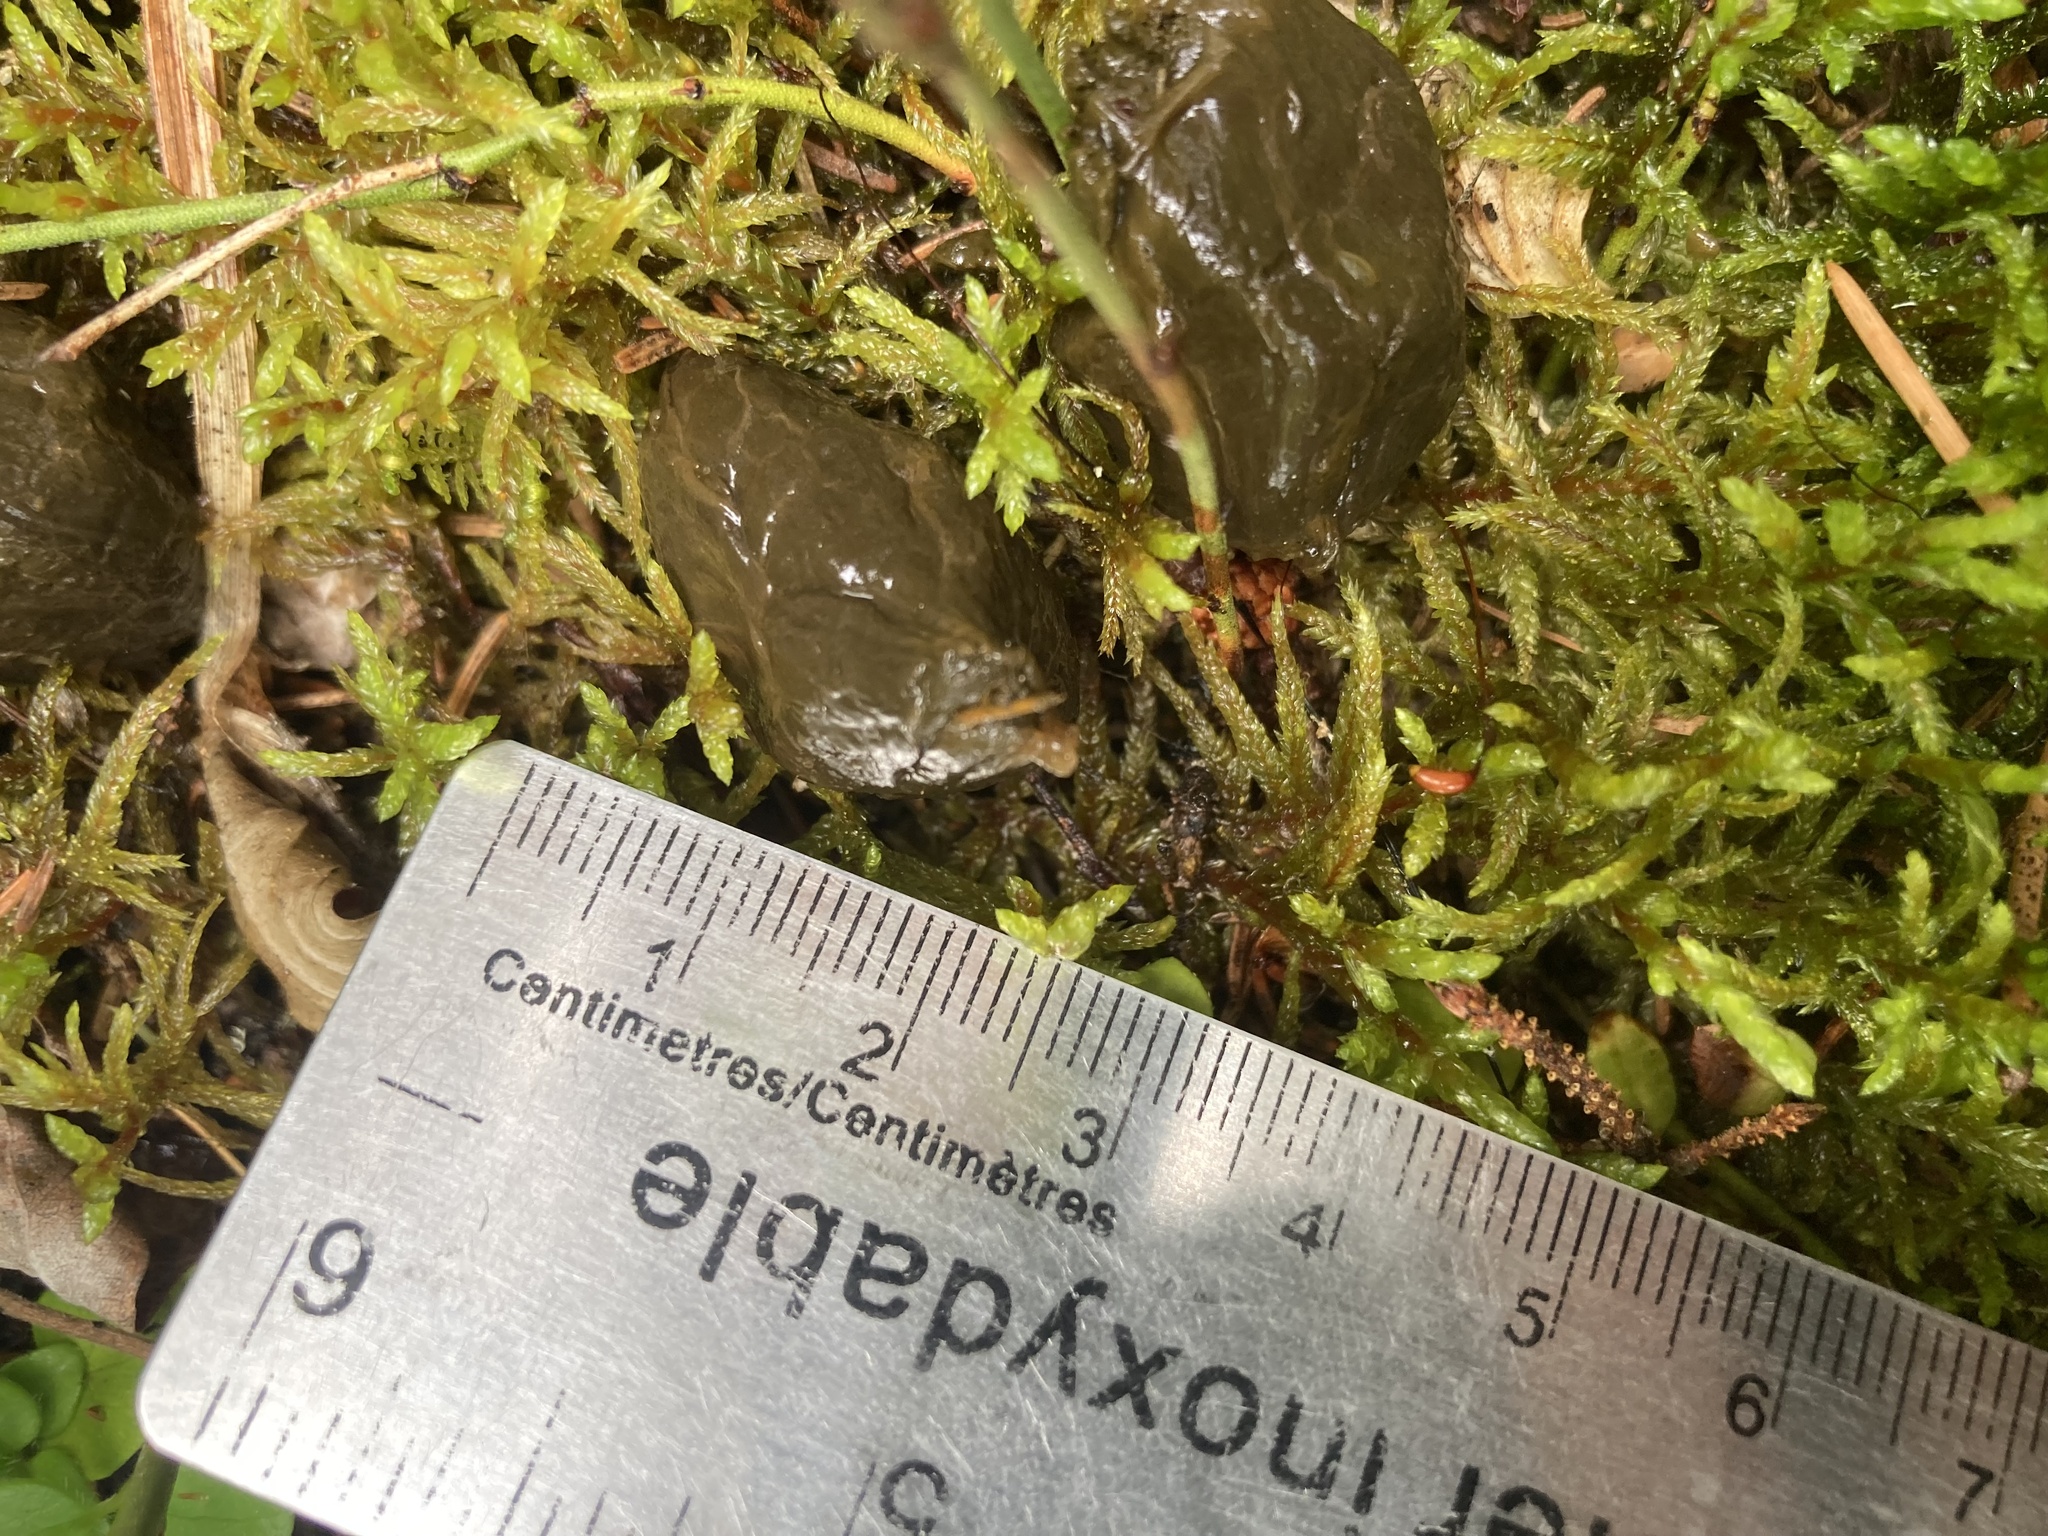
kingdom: Animalia
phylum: Chordata
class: Mammalia
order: Artiodactyla
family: Cervidae
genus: Rangifer
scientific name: Rangifer tarandus
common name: Reindeer
